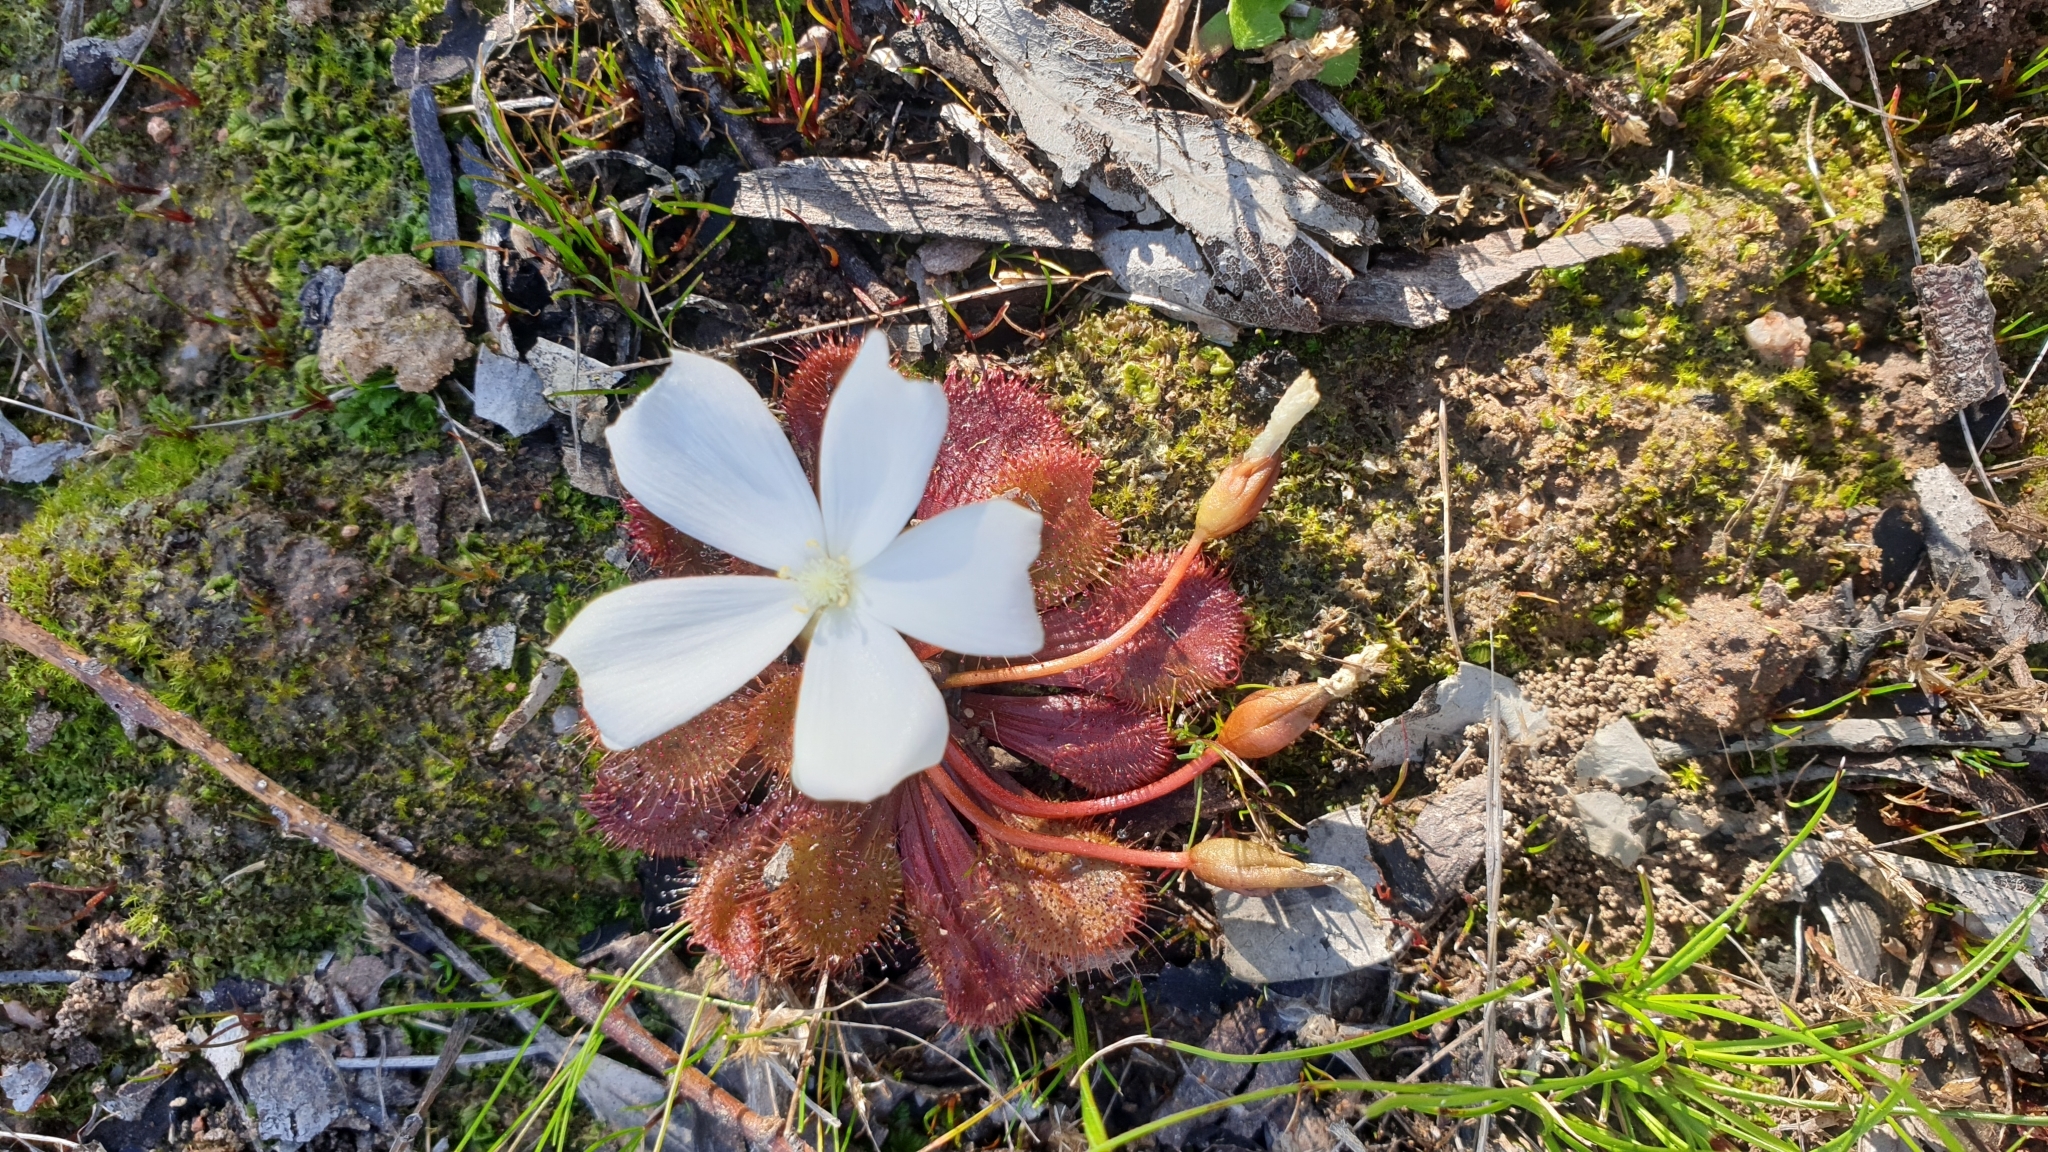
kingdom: Plantae
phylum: Tracheophyta
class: Magnoliopsida
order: Caryophyllales
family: Droseraceae
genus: Drosera
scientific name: Drosera whittakeri
